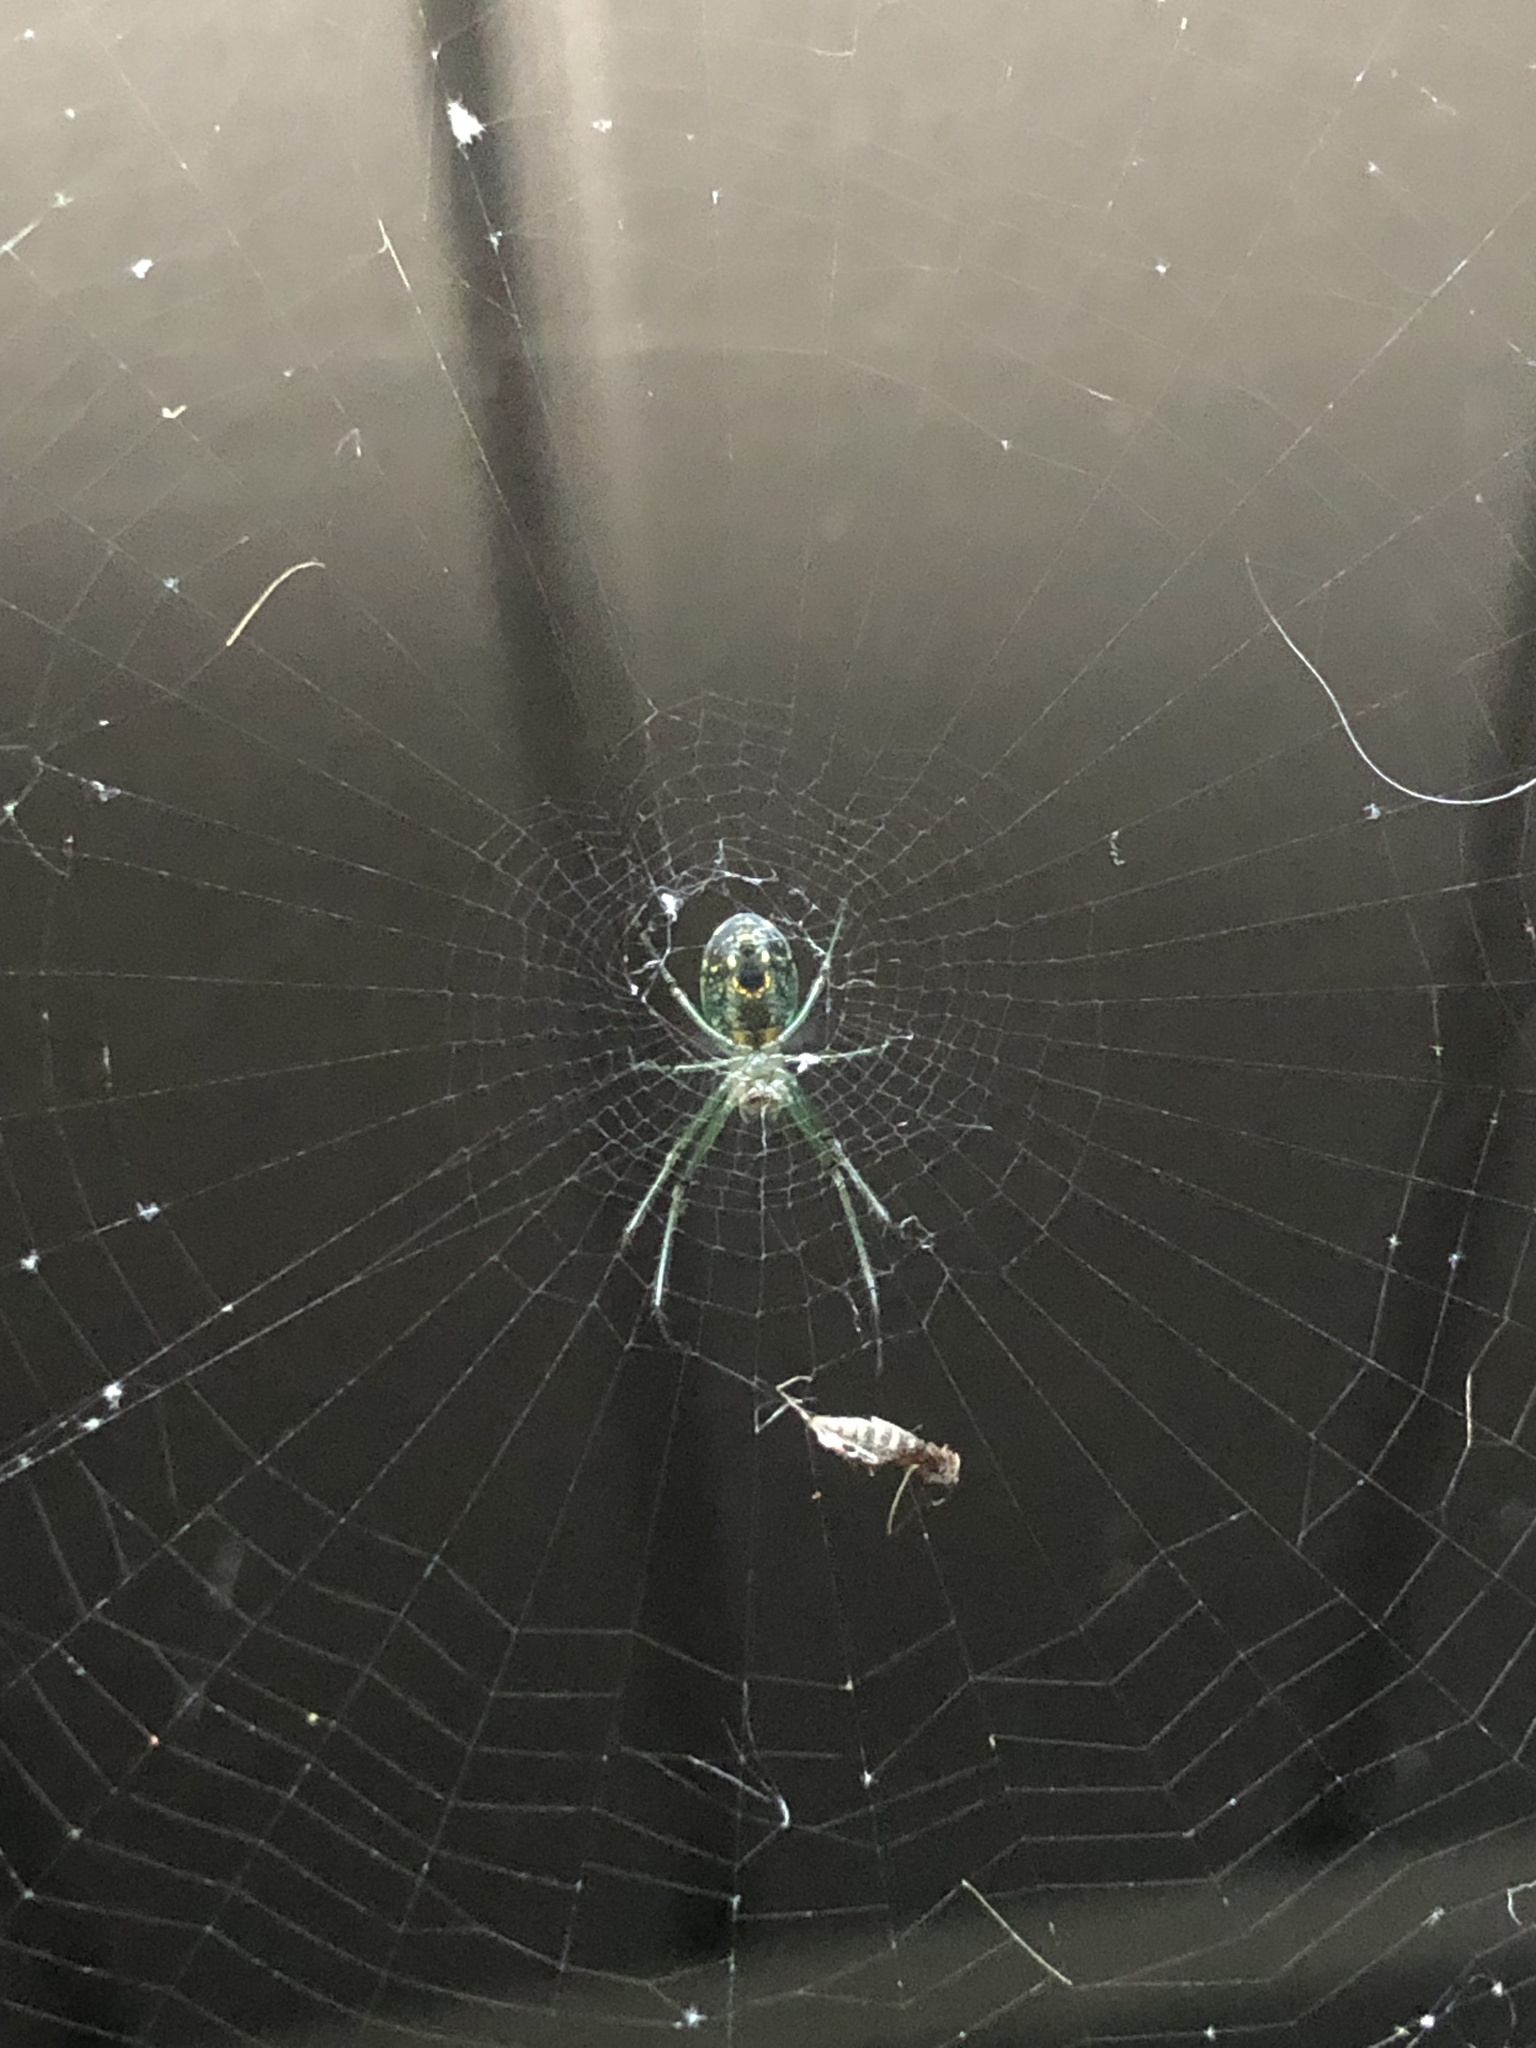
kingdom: Animalia
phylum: Arthropoda
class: Arachnida
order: Araneae
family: Tetragnathidae
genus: Leucauge
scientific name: Leucauge venusta
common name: Longjawed orb weavers
